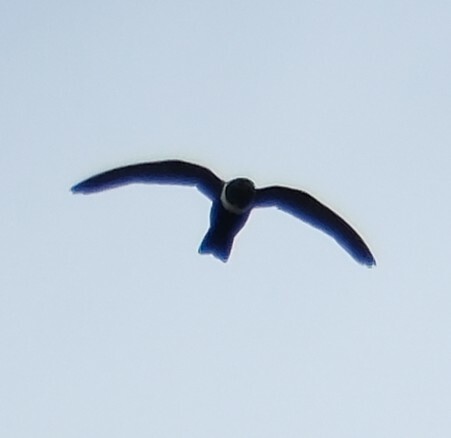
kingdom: Animalia
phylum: Chordata
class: Aves
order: Apodiformes
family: Apodidae
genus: Streptoprocne
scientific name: Streptoprocne zonaris
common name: White-collared swift
